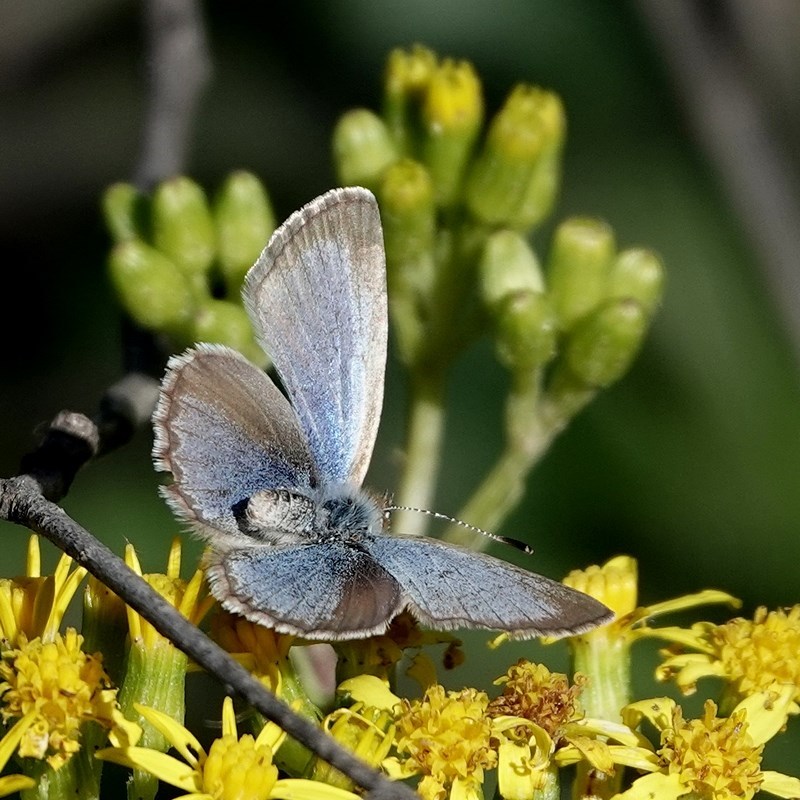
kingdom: Animalia
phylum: Arthropoda
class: Insecta
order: Lepidoptera
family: Lycaenidae
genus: Zizina
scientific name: Zizina labradus
